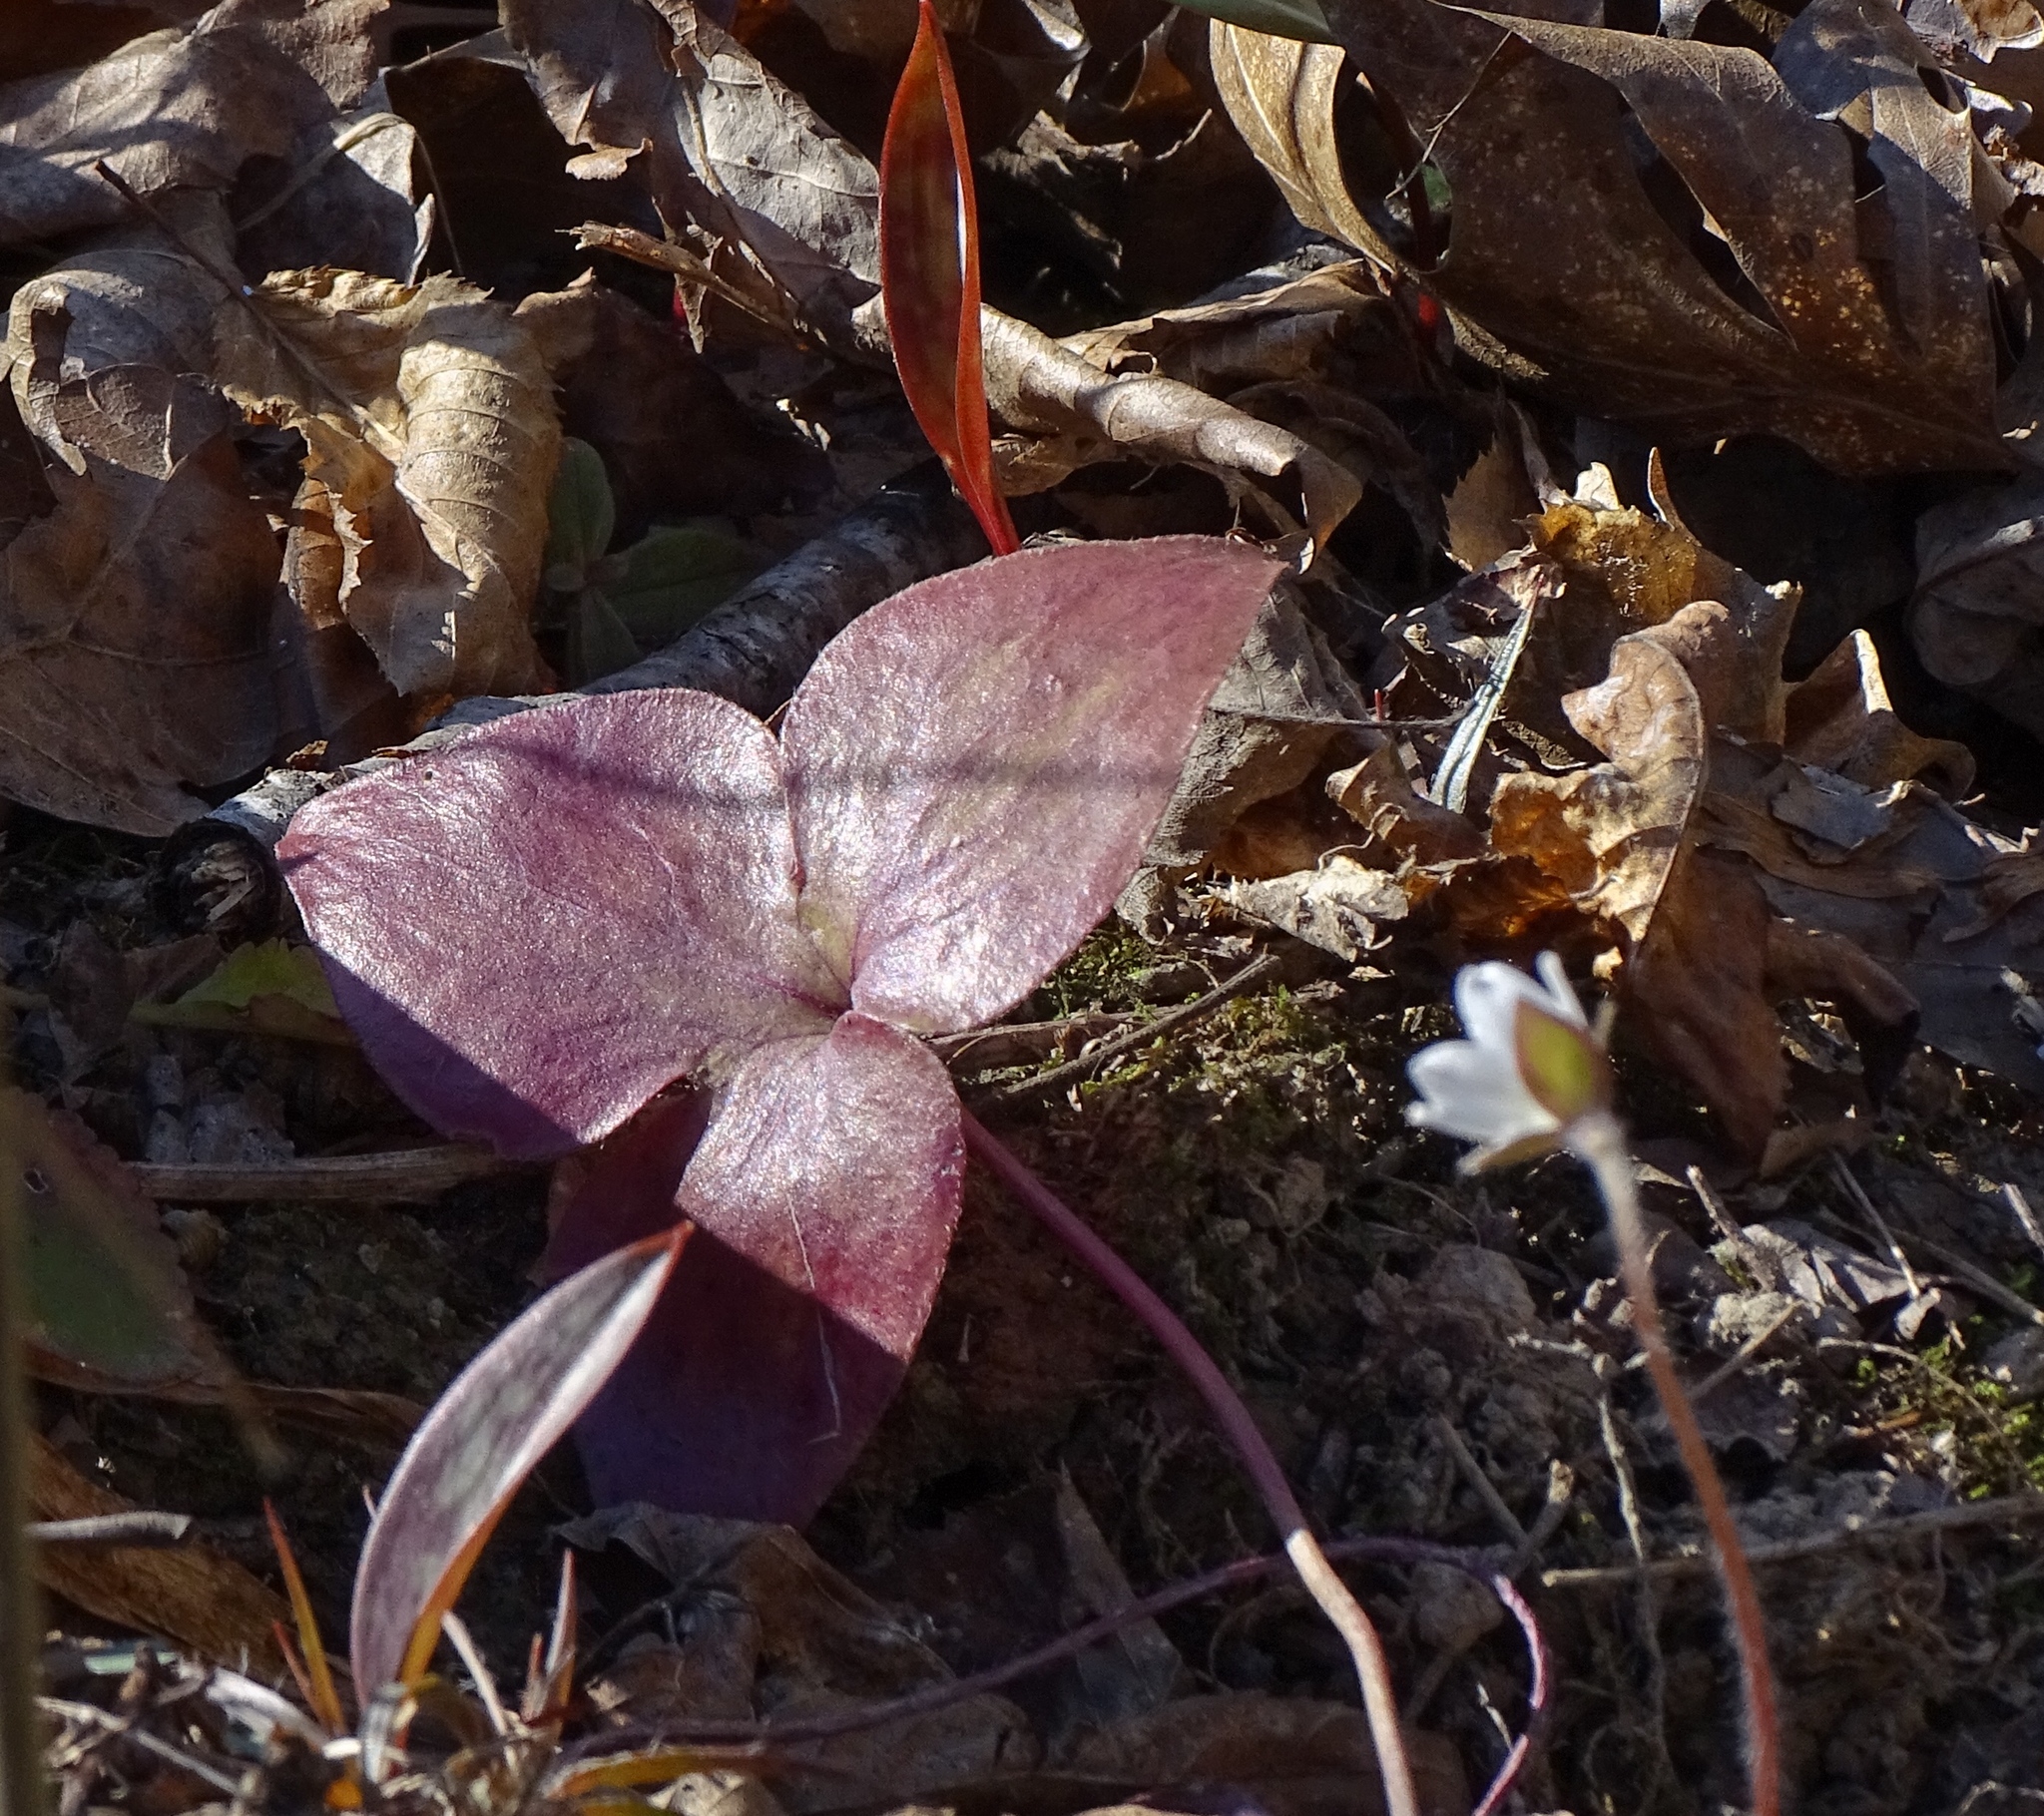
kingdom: Plantae
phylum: Tracheophyta
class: Magnoliopsida
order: Ranunculales
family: Ranunculaceae
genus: Hepatica
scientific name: Hepatica acutiloba
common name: Sharp-lobed hepatica
